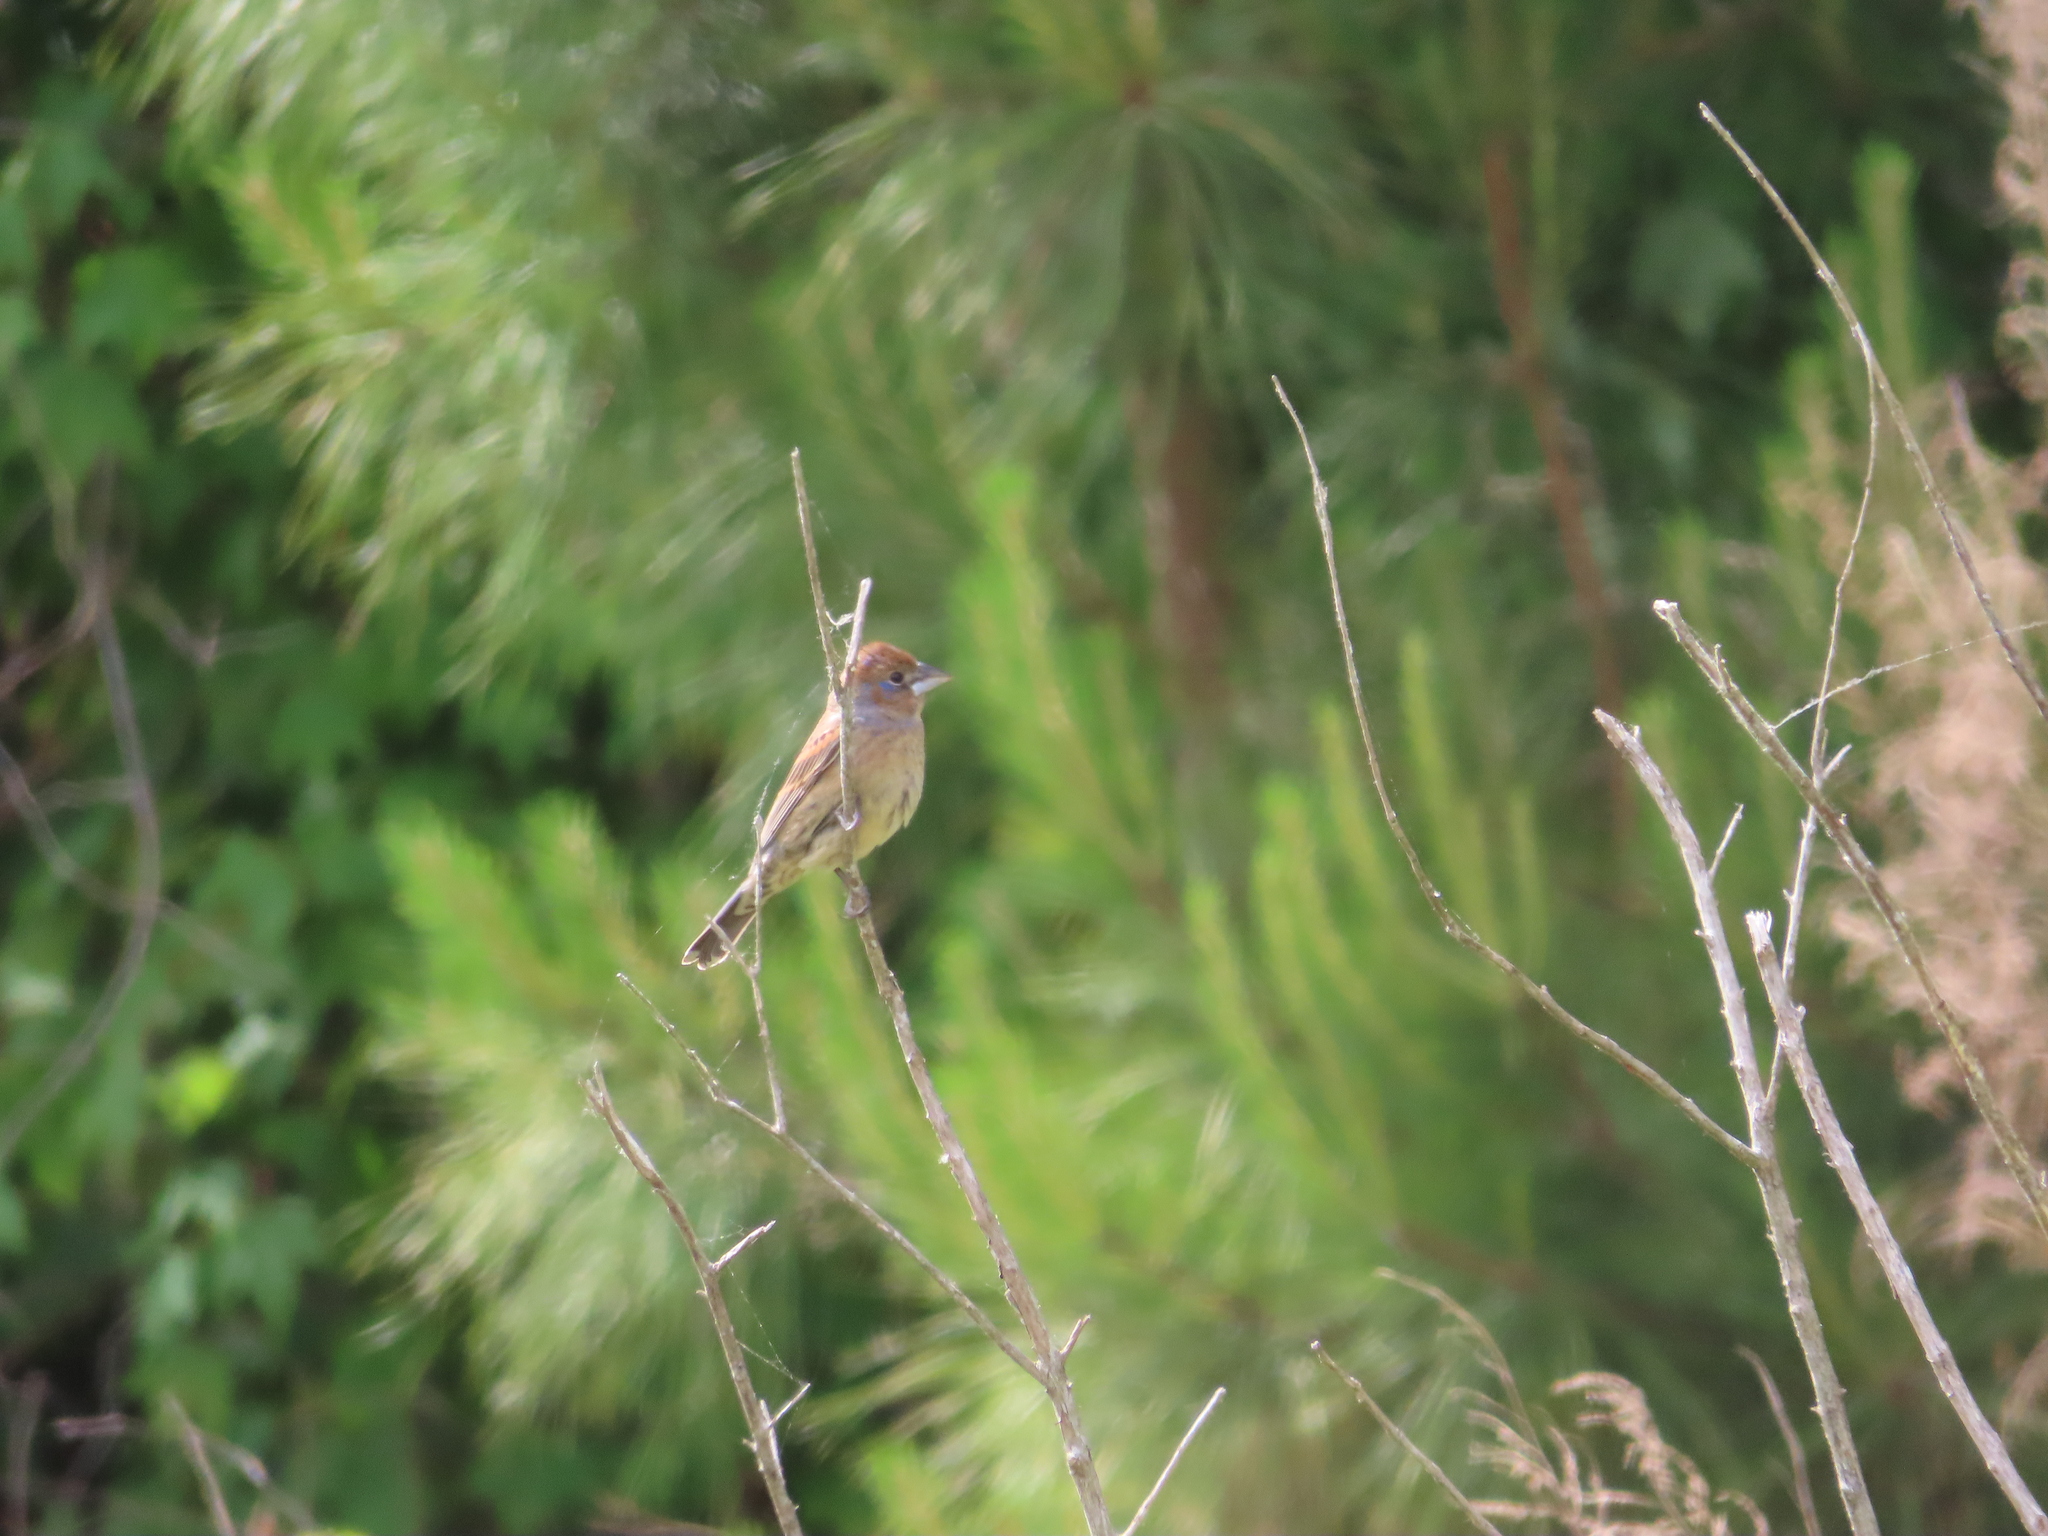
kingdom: Animalia
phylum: Chordata
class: Aves
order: Passeriformes
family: Cardinalidae
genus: Passerina
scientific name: Passerina caerulea
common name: Blue grosbeak
